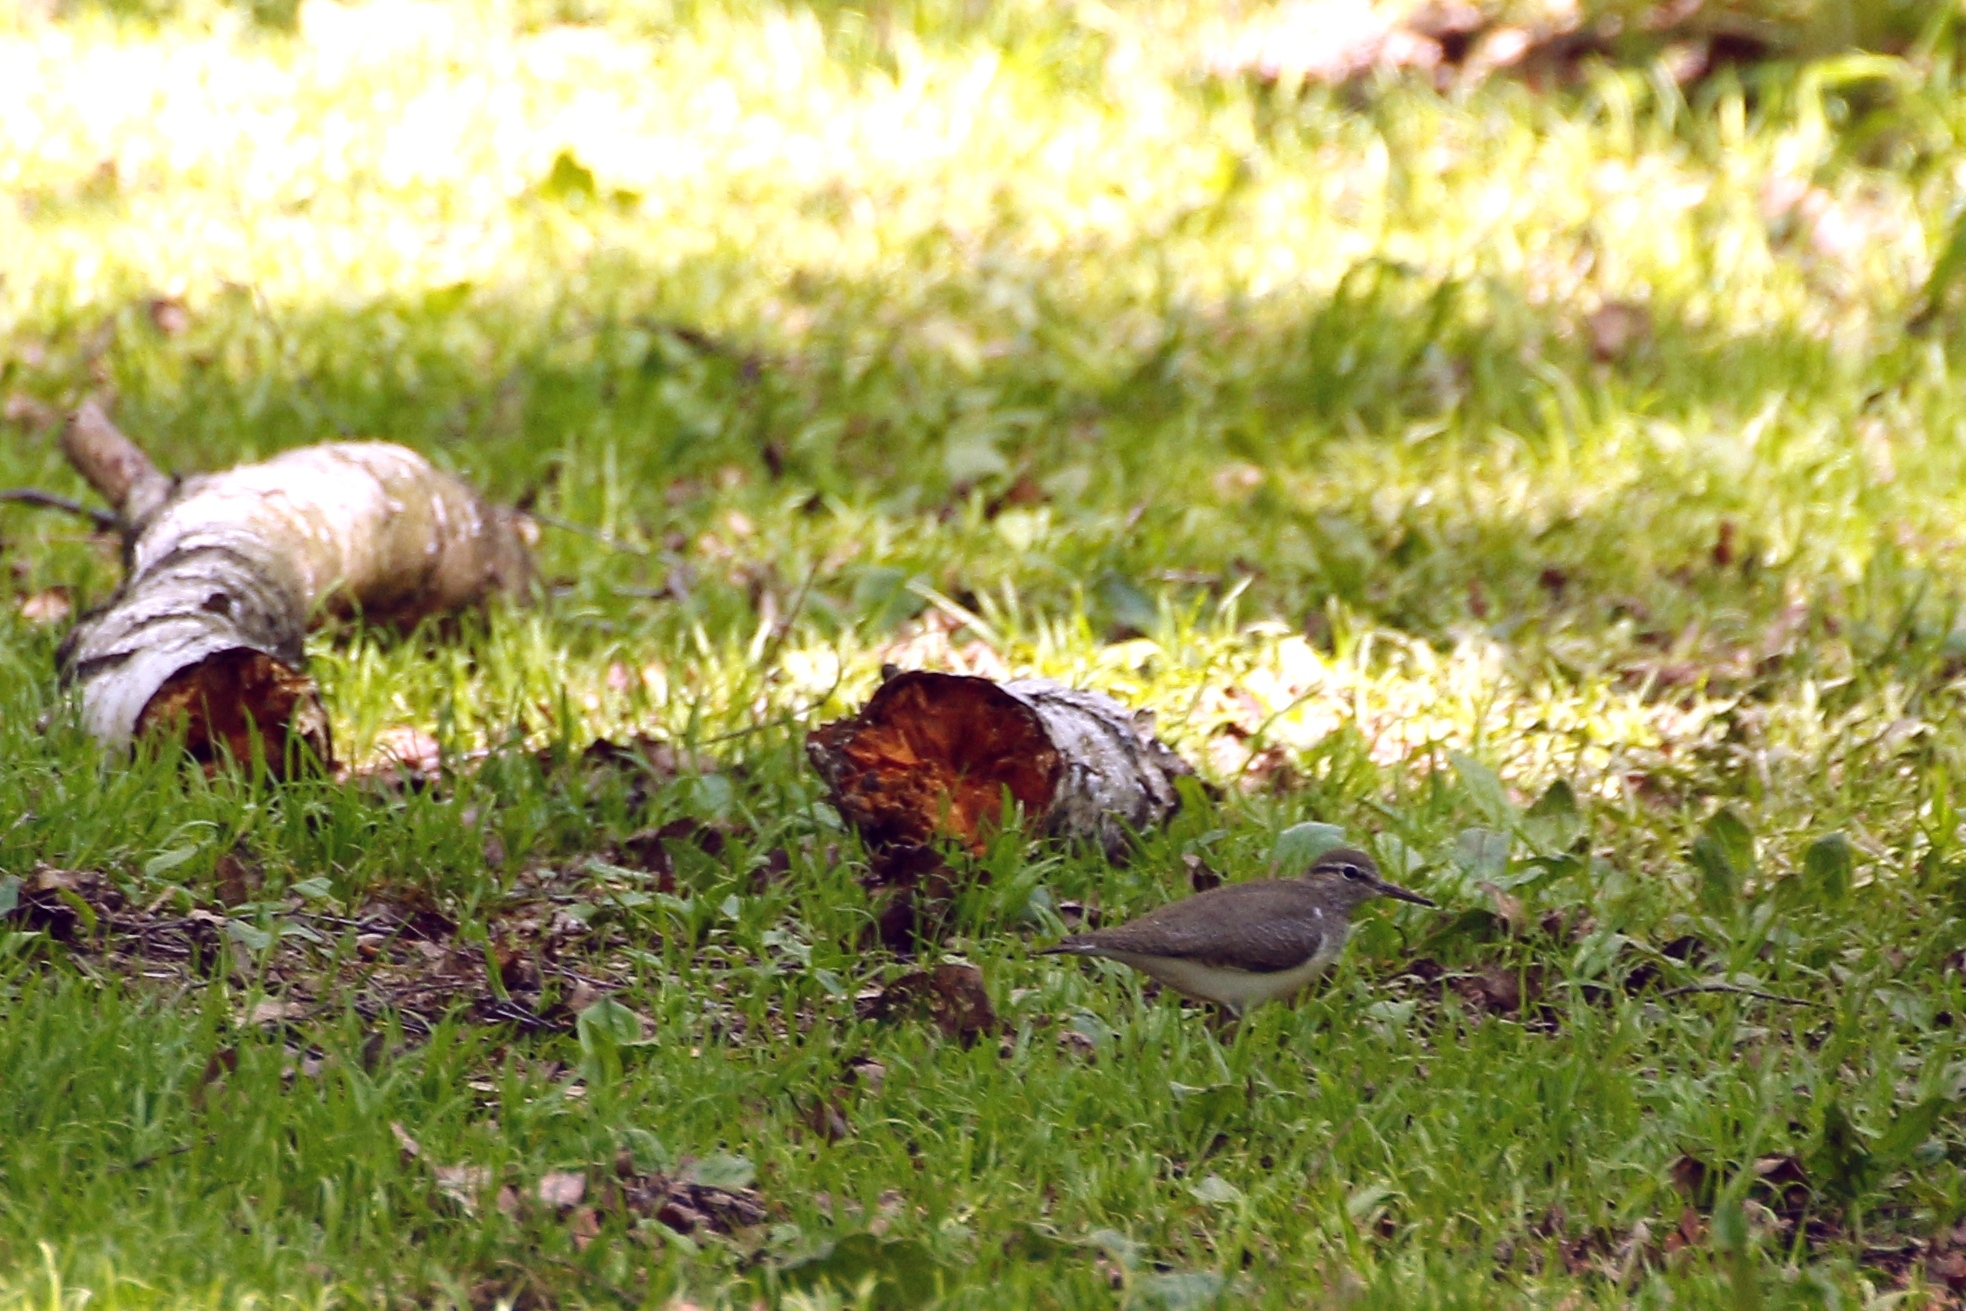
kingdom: Animalia
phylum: Chordata
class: Aves
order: Charadriiformes
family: Scolopacidae
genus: Actitis
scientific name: Actitis hypoleucos
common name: Common sandpiper
